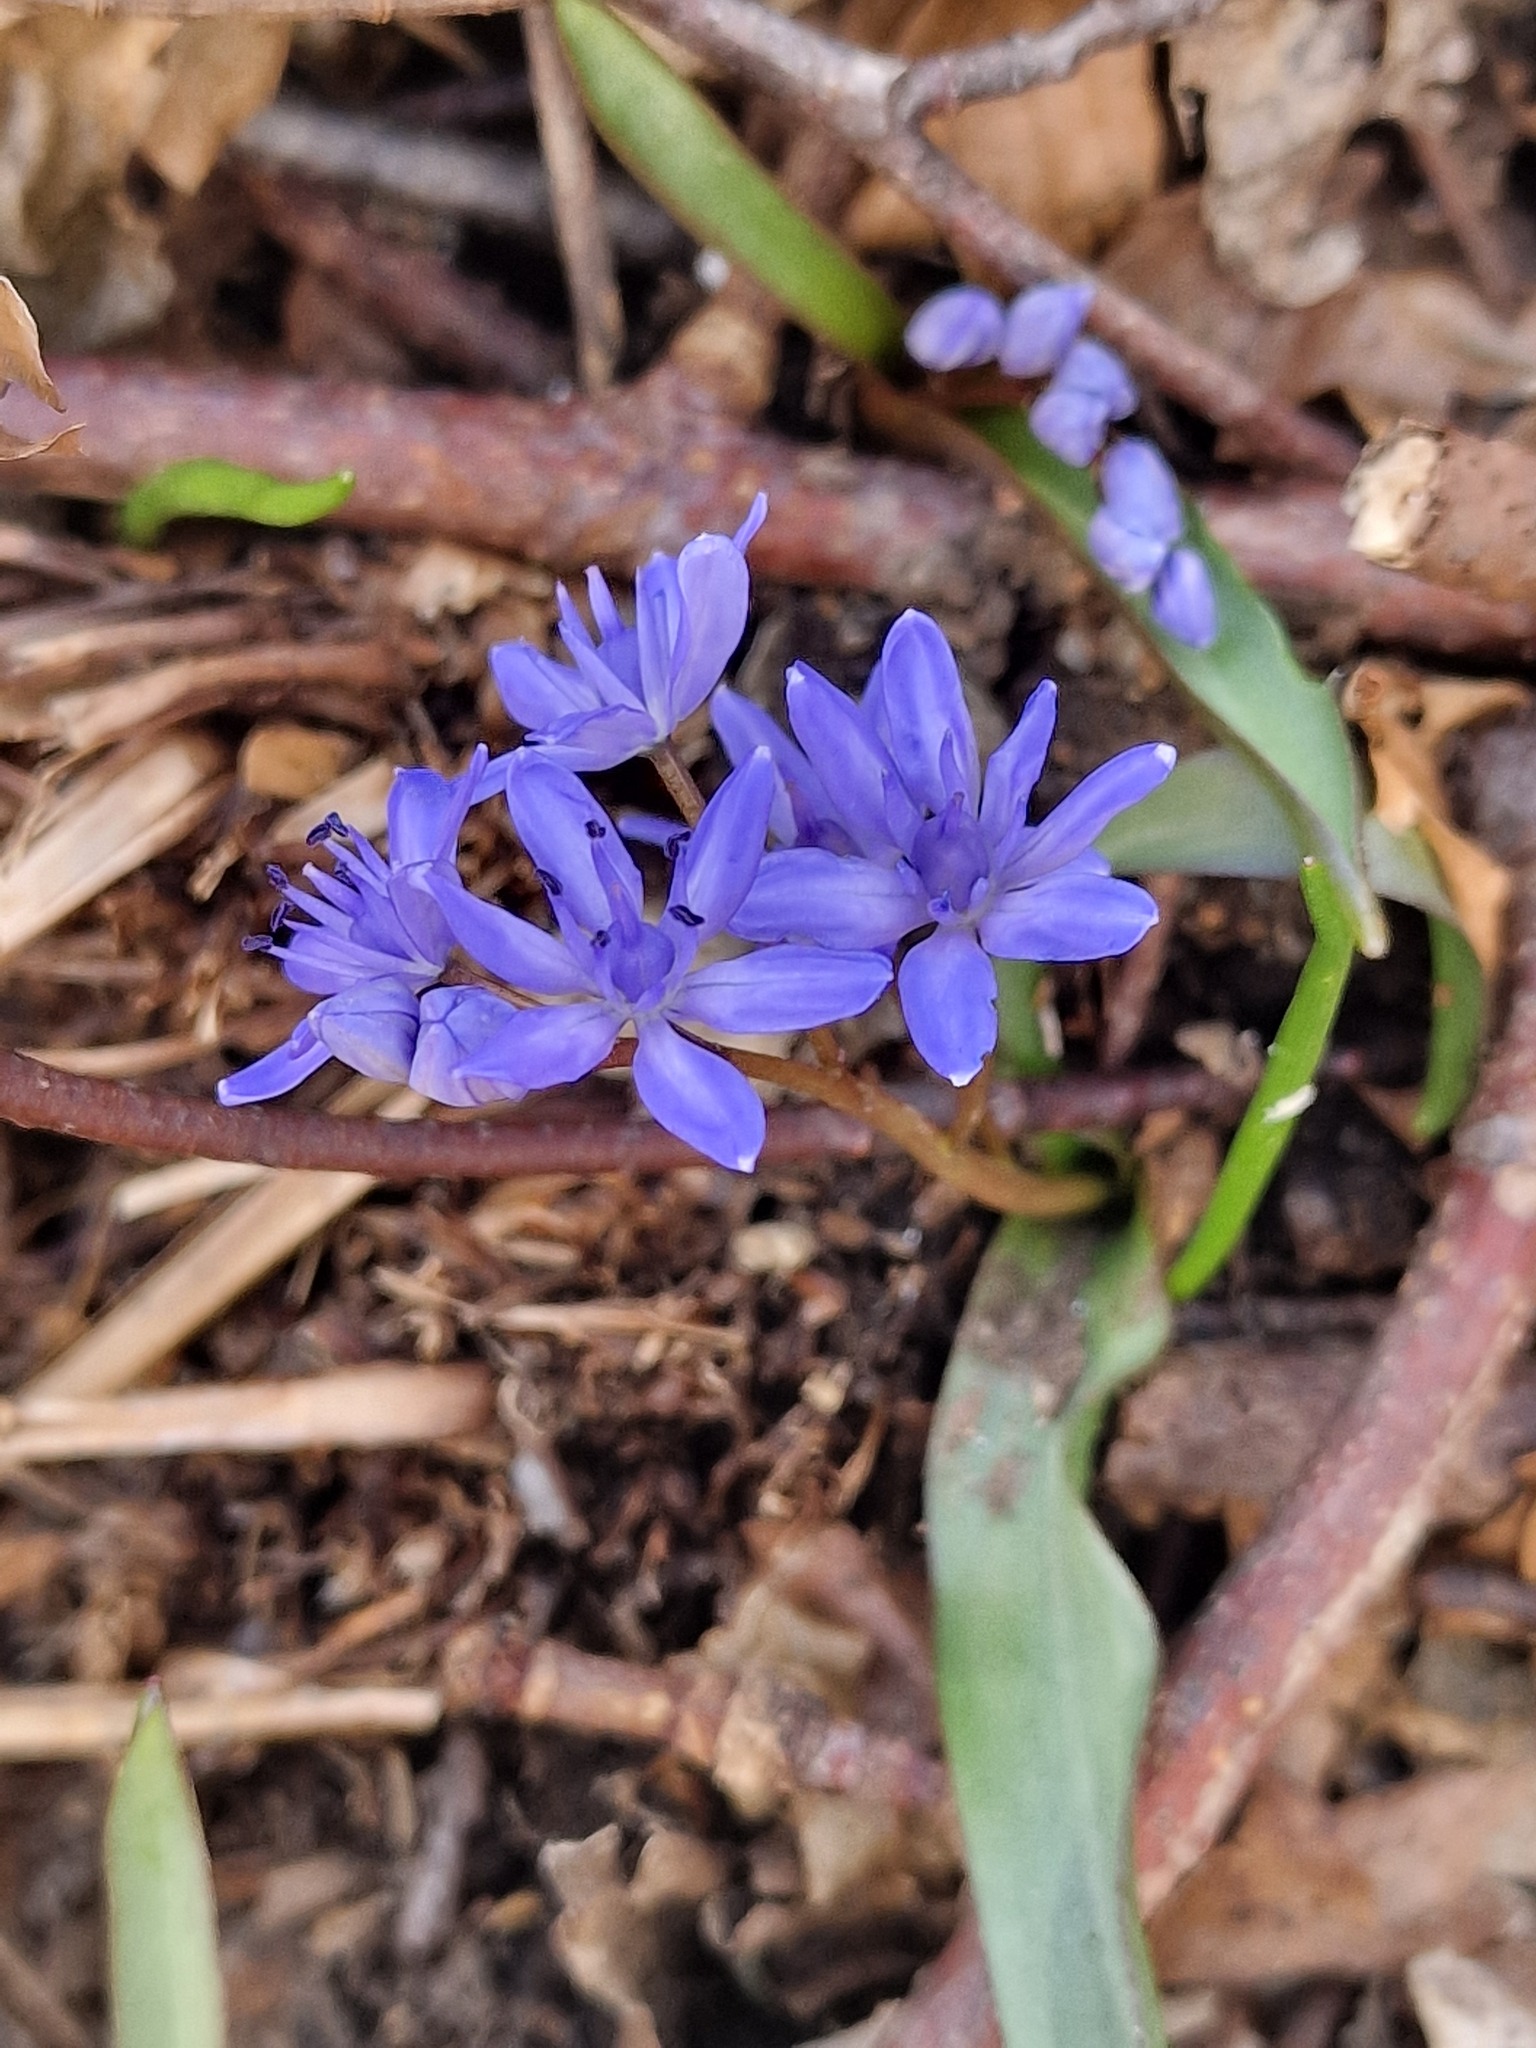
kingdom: Plantae
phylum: Tracheophyta
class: Liliopsida
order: Asparagales
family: Asparagaceae
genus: Scilla
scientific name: Scilla bifolia
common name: Alpine squill
